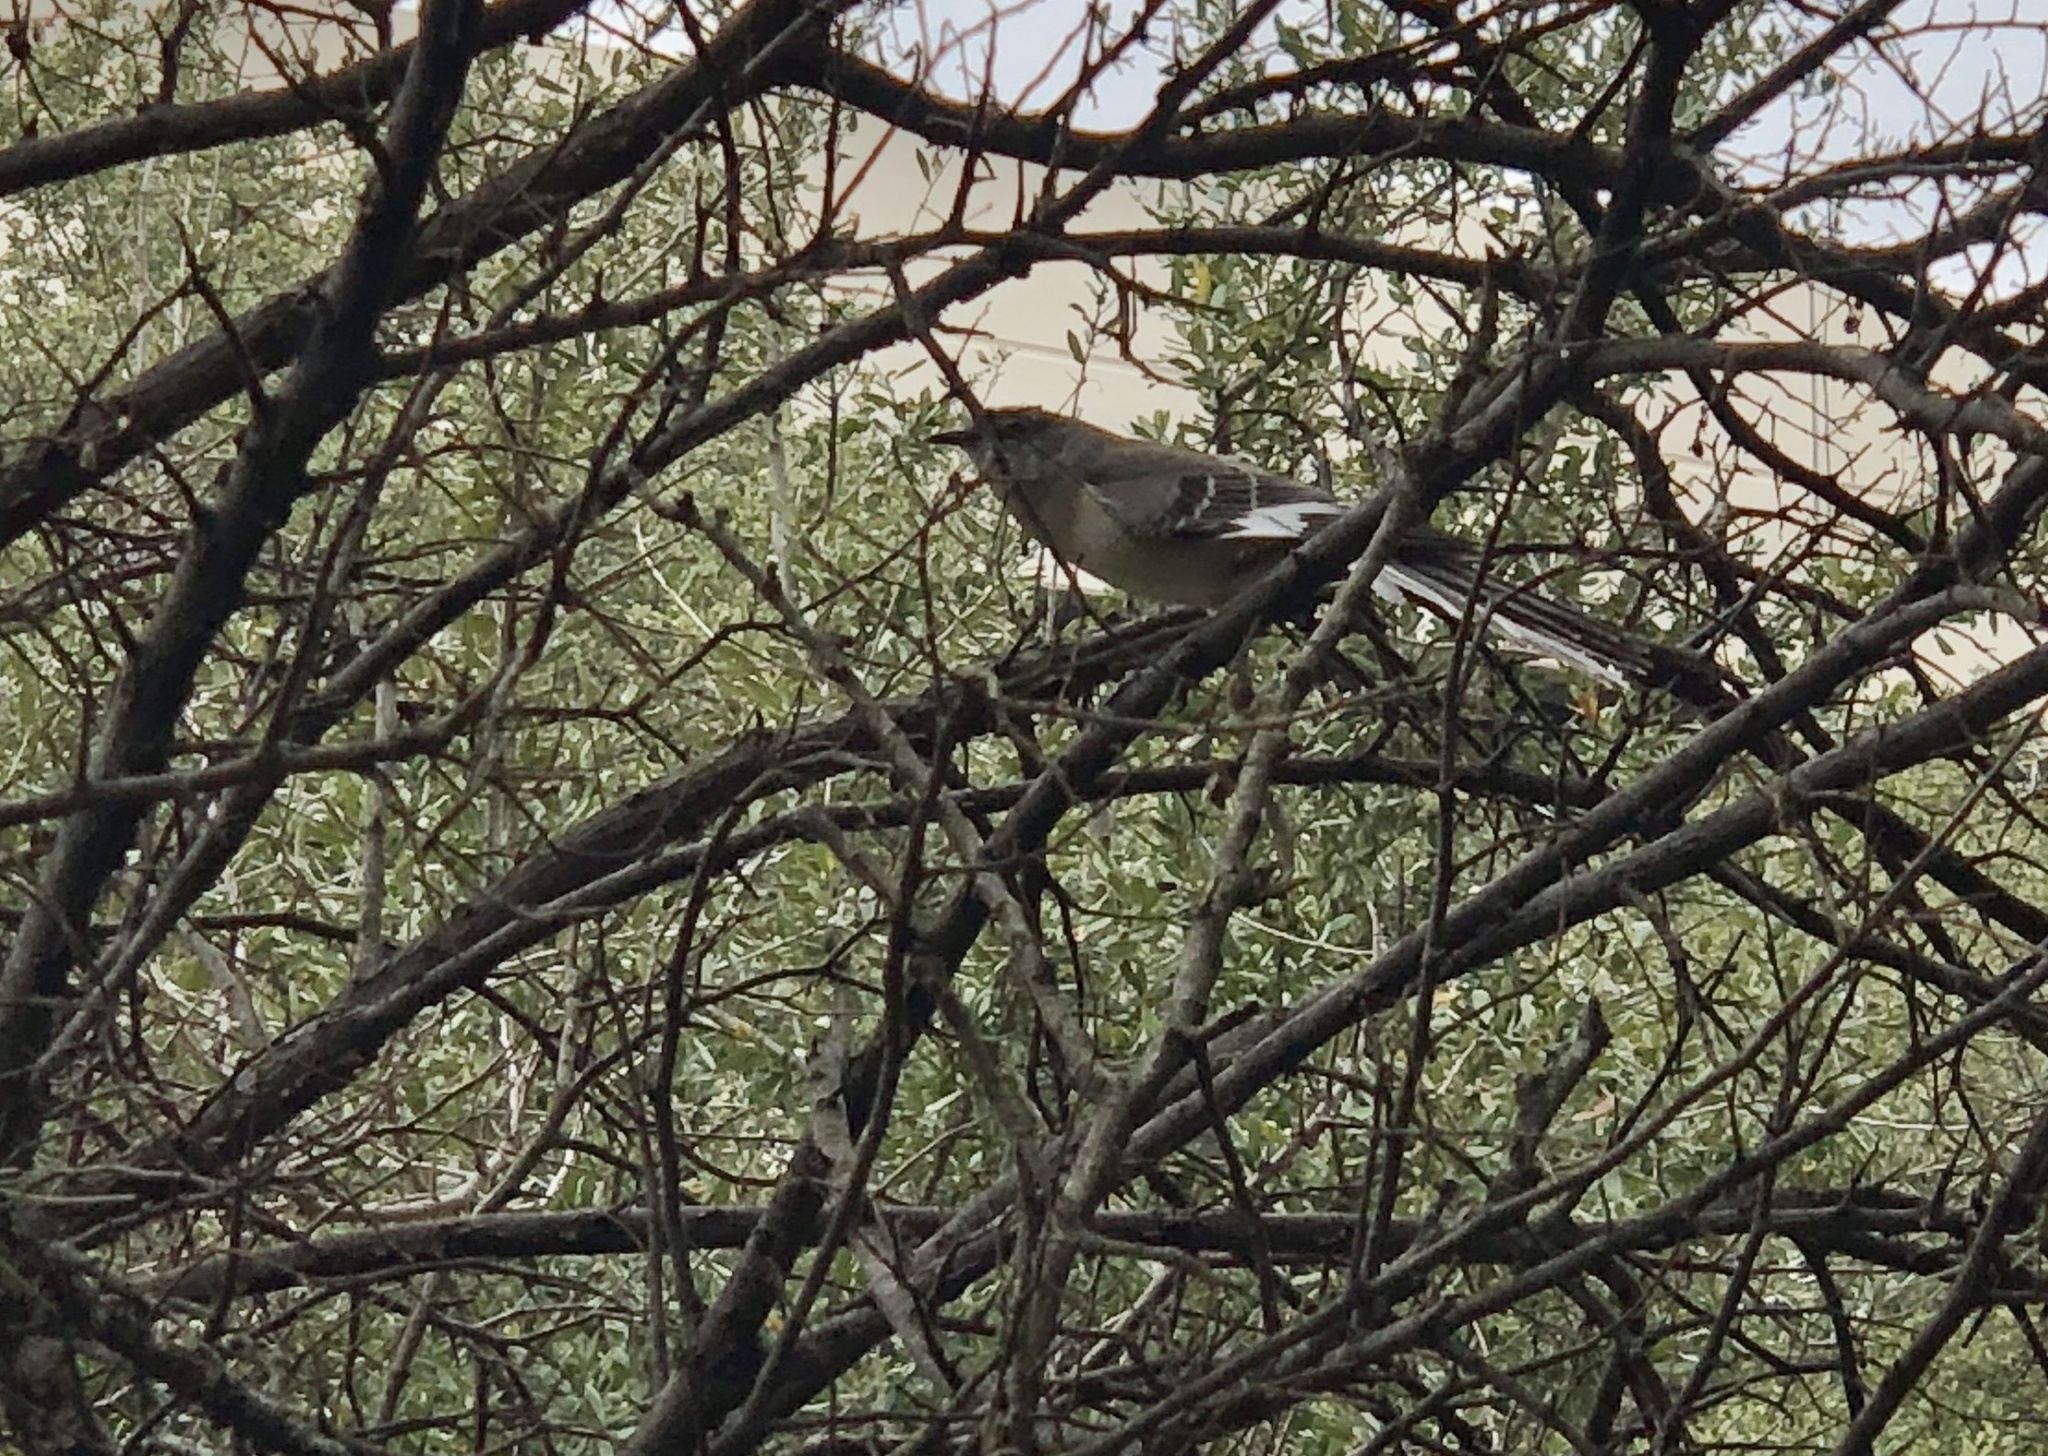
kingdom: Animalia
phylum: Chordata
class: Aves
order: Passeriformes
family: Mimidae
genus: Mimus
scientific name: Mimus polyglottos
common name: Northern mockingbird
